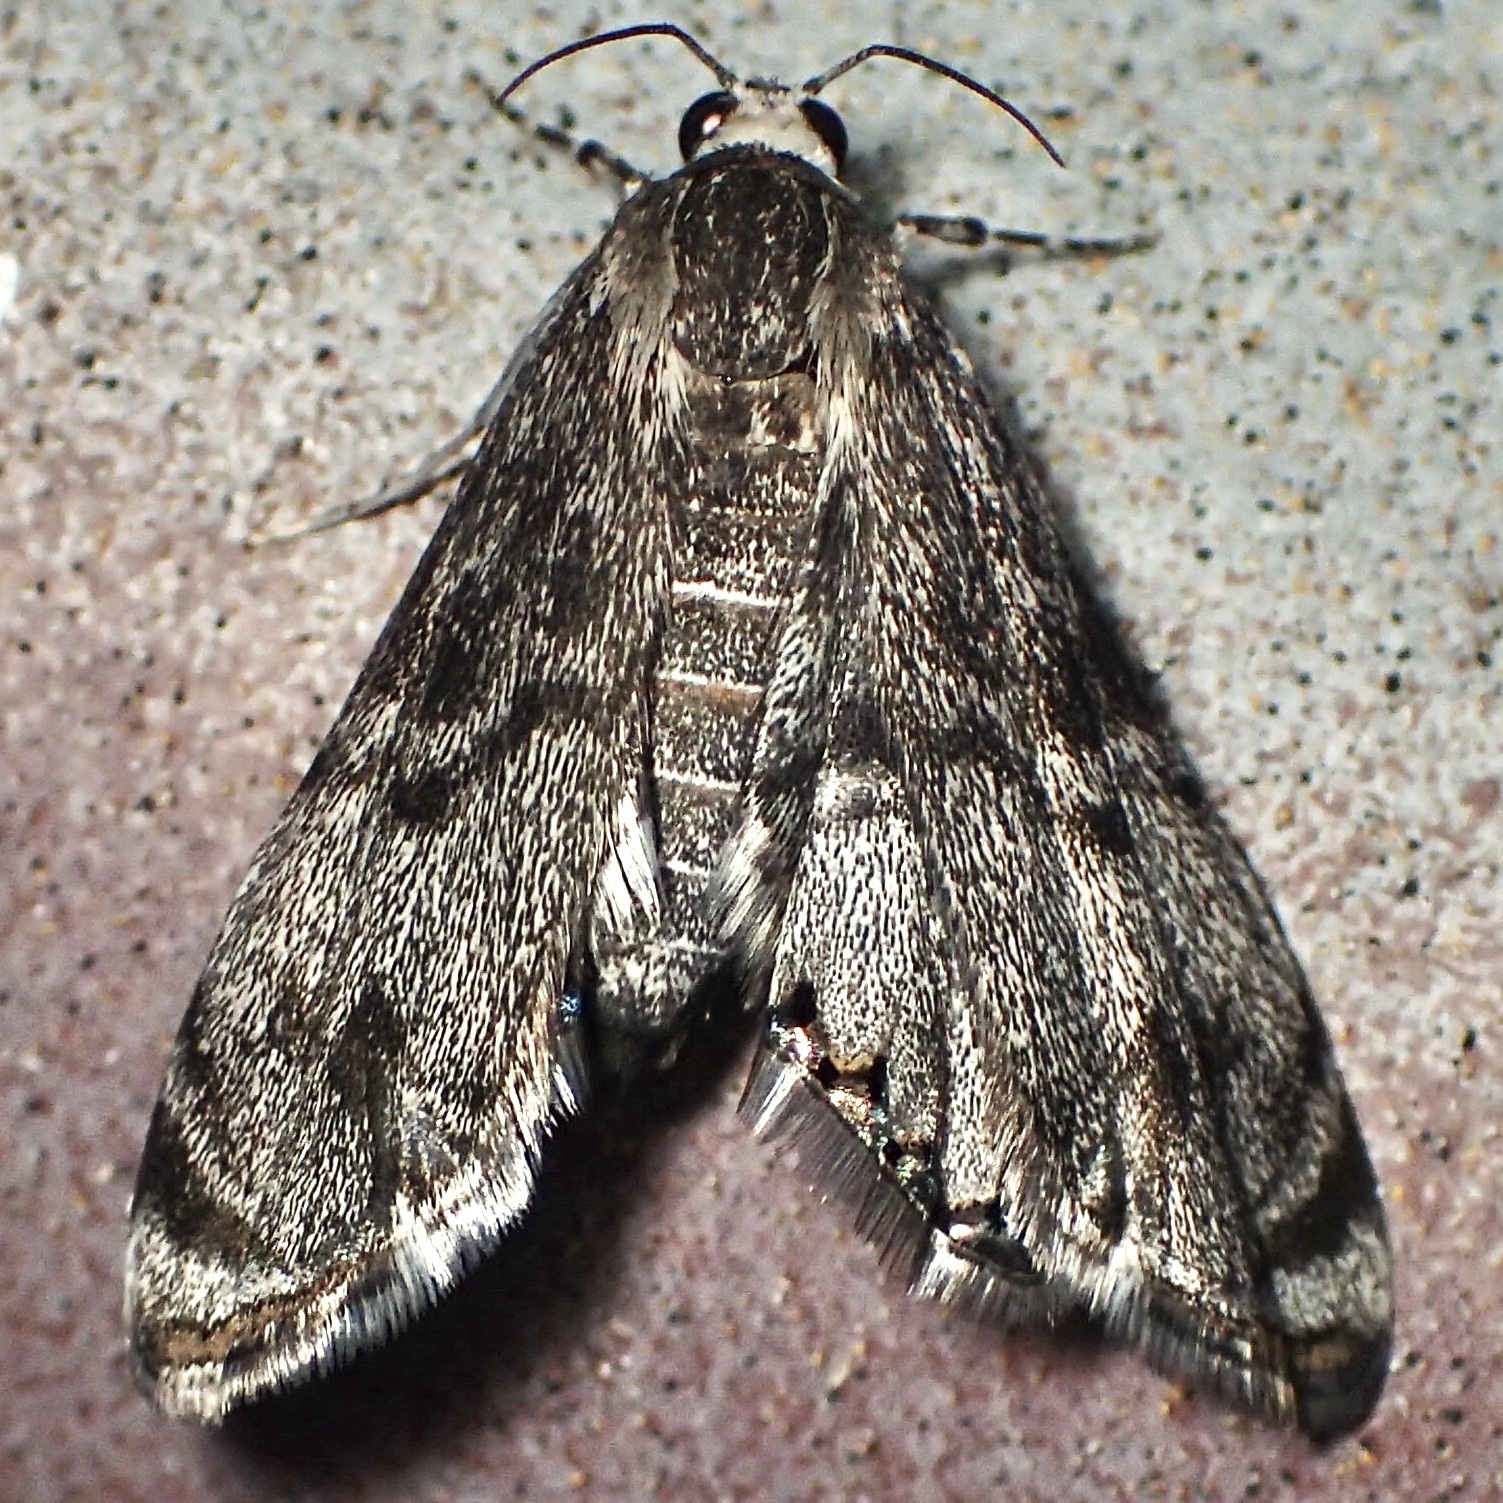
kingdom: Animalia
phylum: Arthropoda
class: Insecta
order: Lepidoptera
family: Crambidae
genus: Petrophila
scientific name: Petrophila schaefferalis
